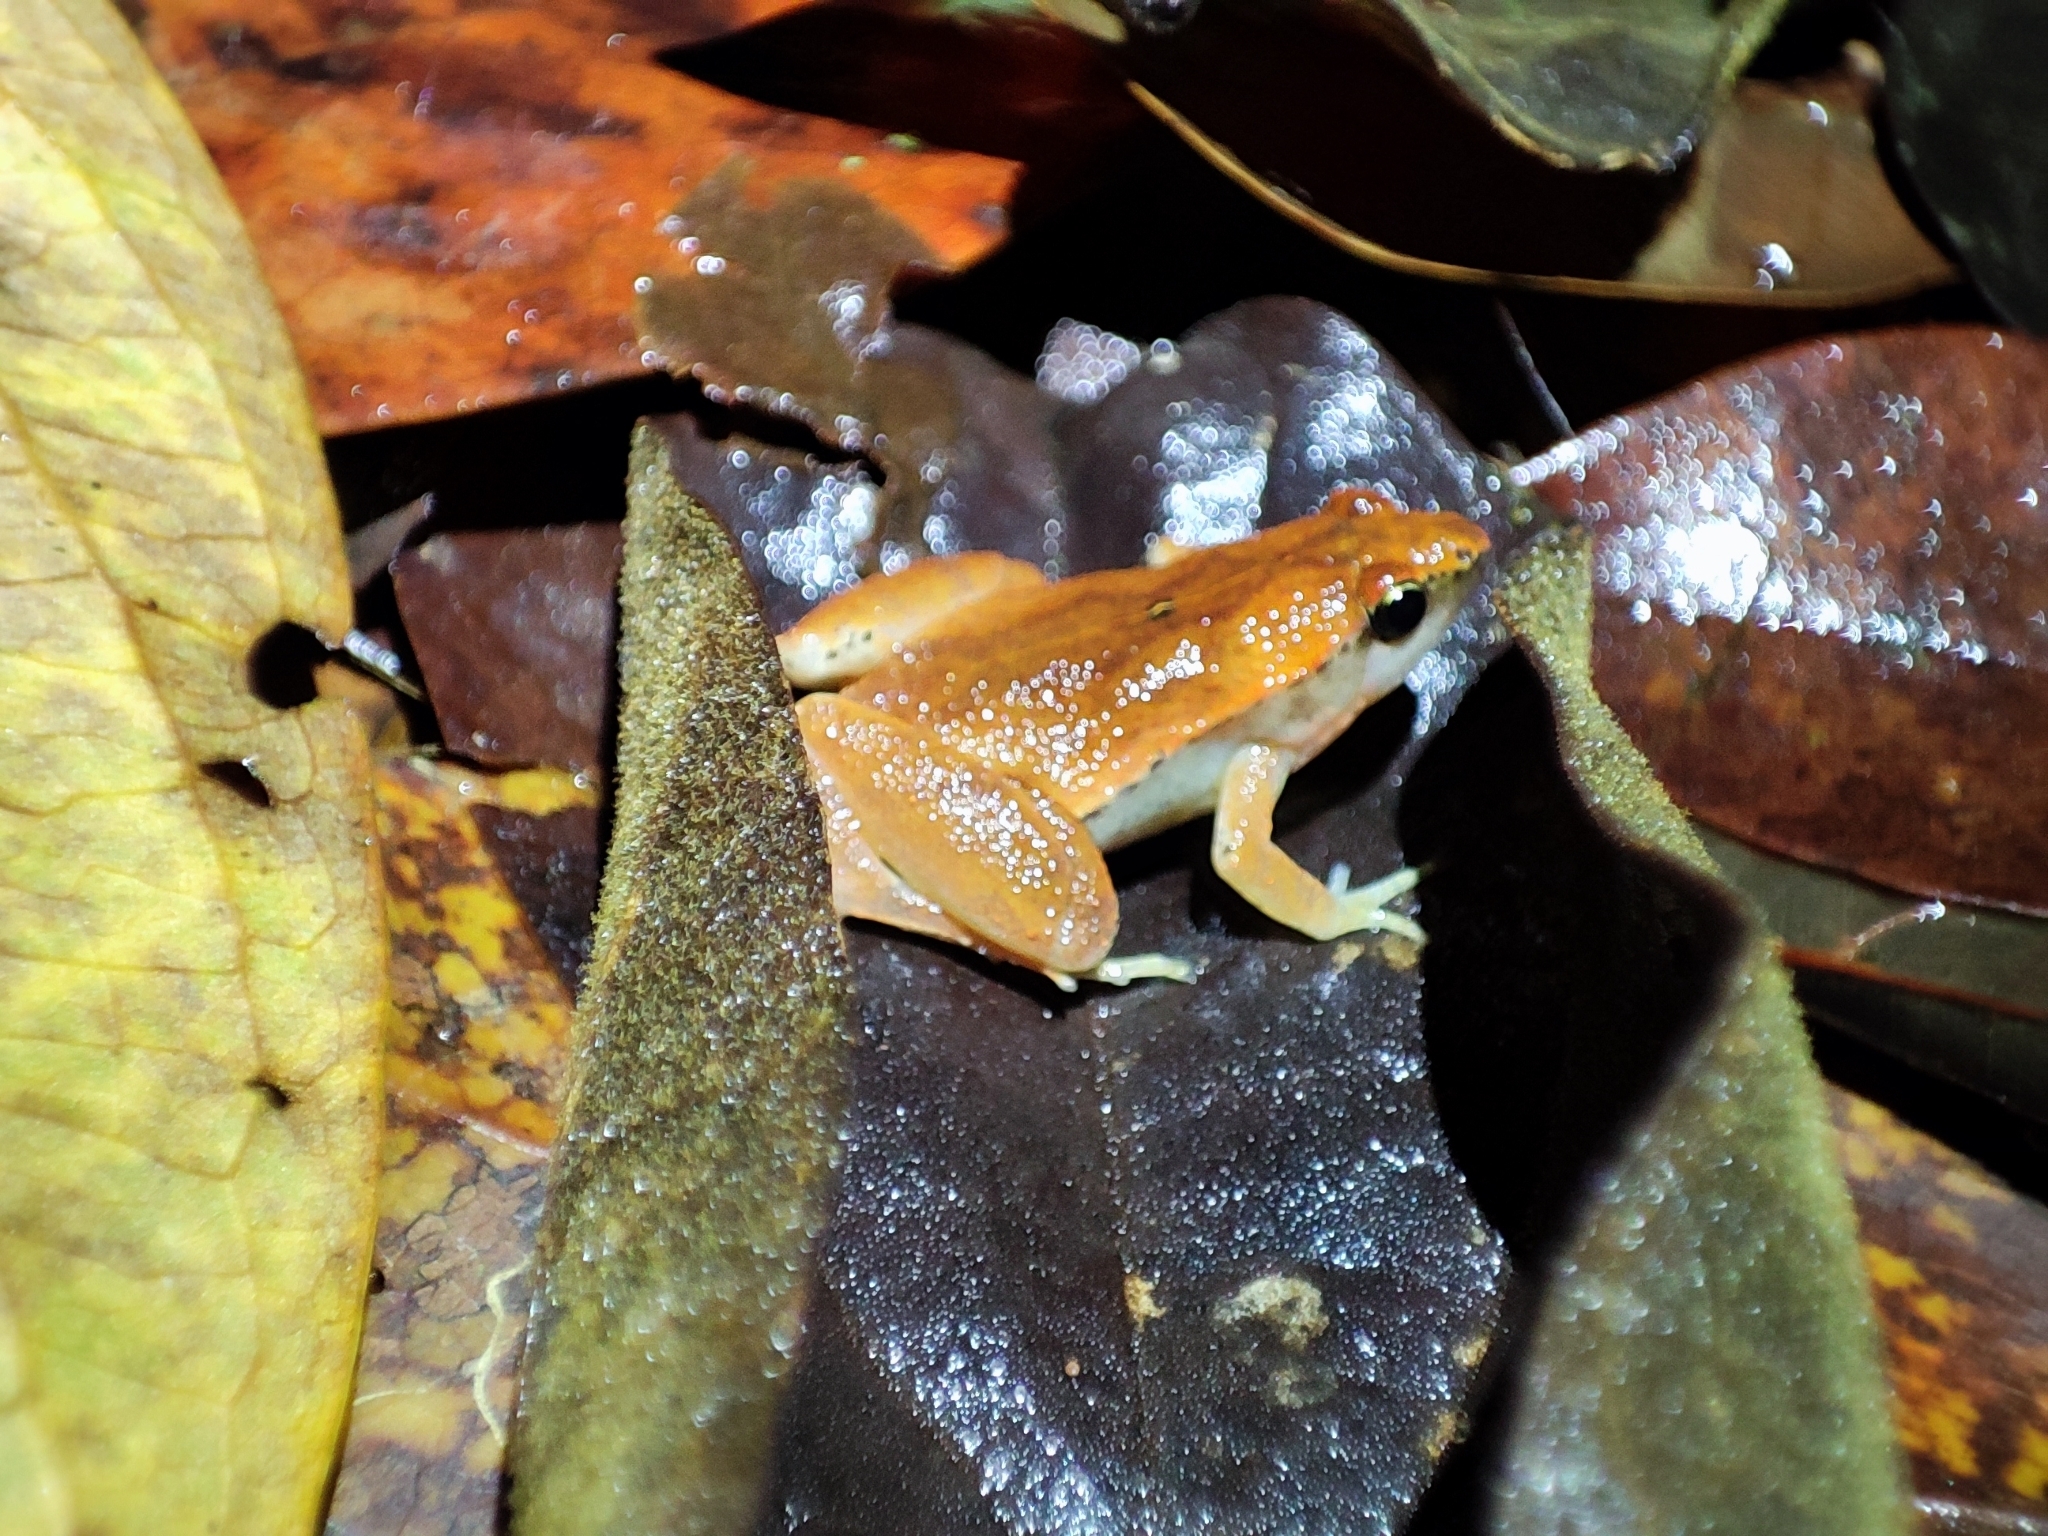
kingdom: Animalia
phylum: Chordata
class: Amphibia
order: Anura
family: Microhylidae
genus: Microhyla
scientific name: Microhyla heymonsi
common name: Taiwan rice frog,dark sided chorus frog
